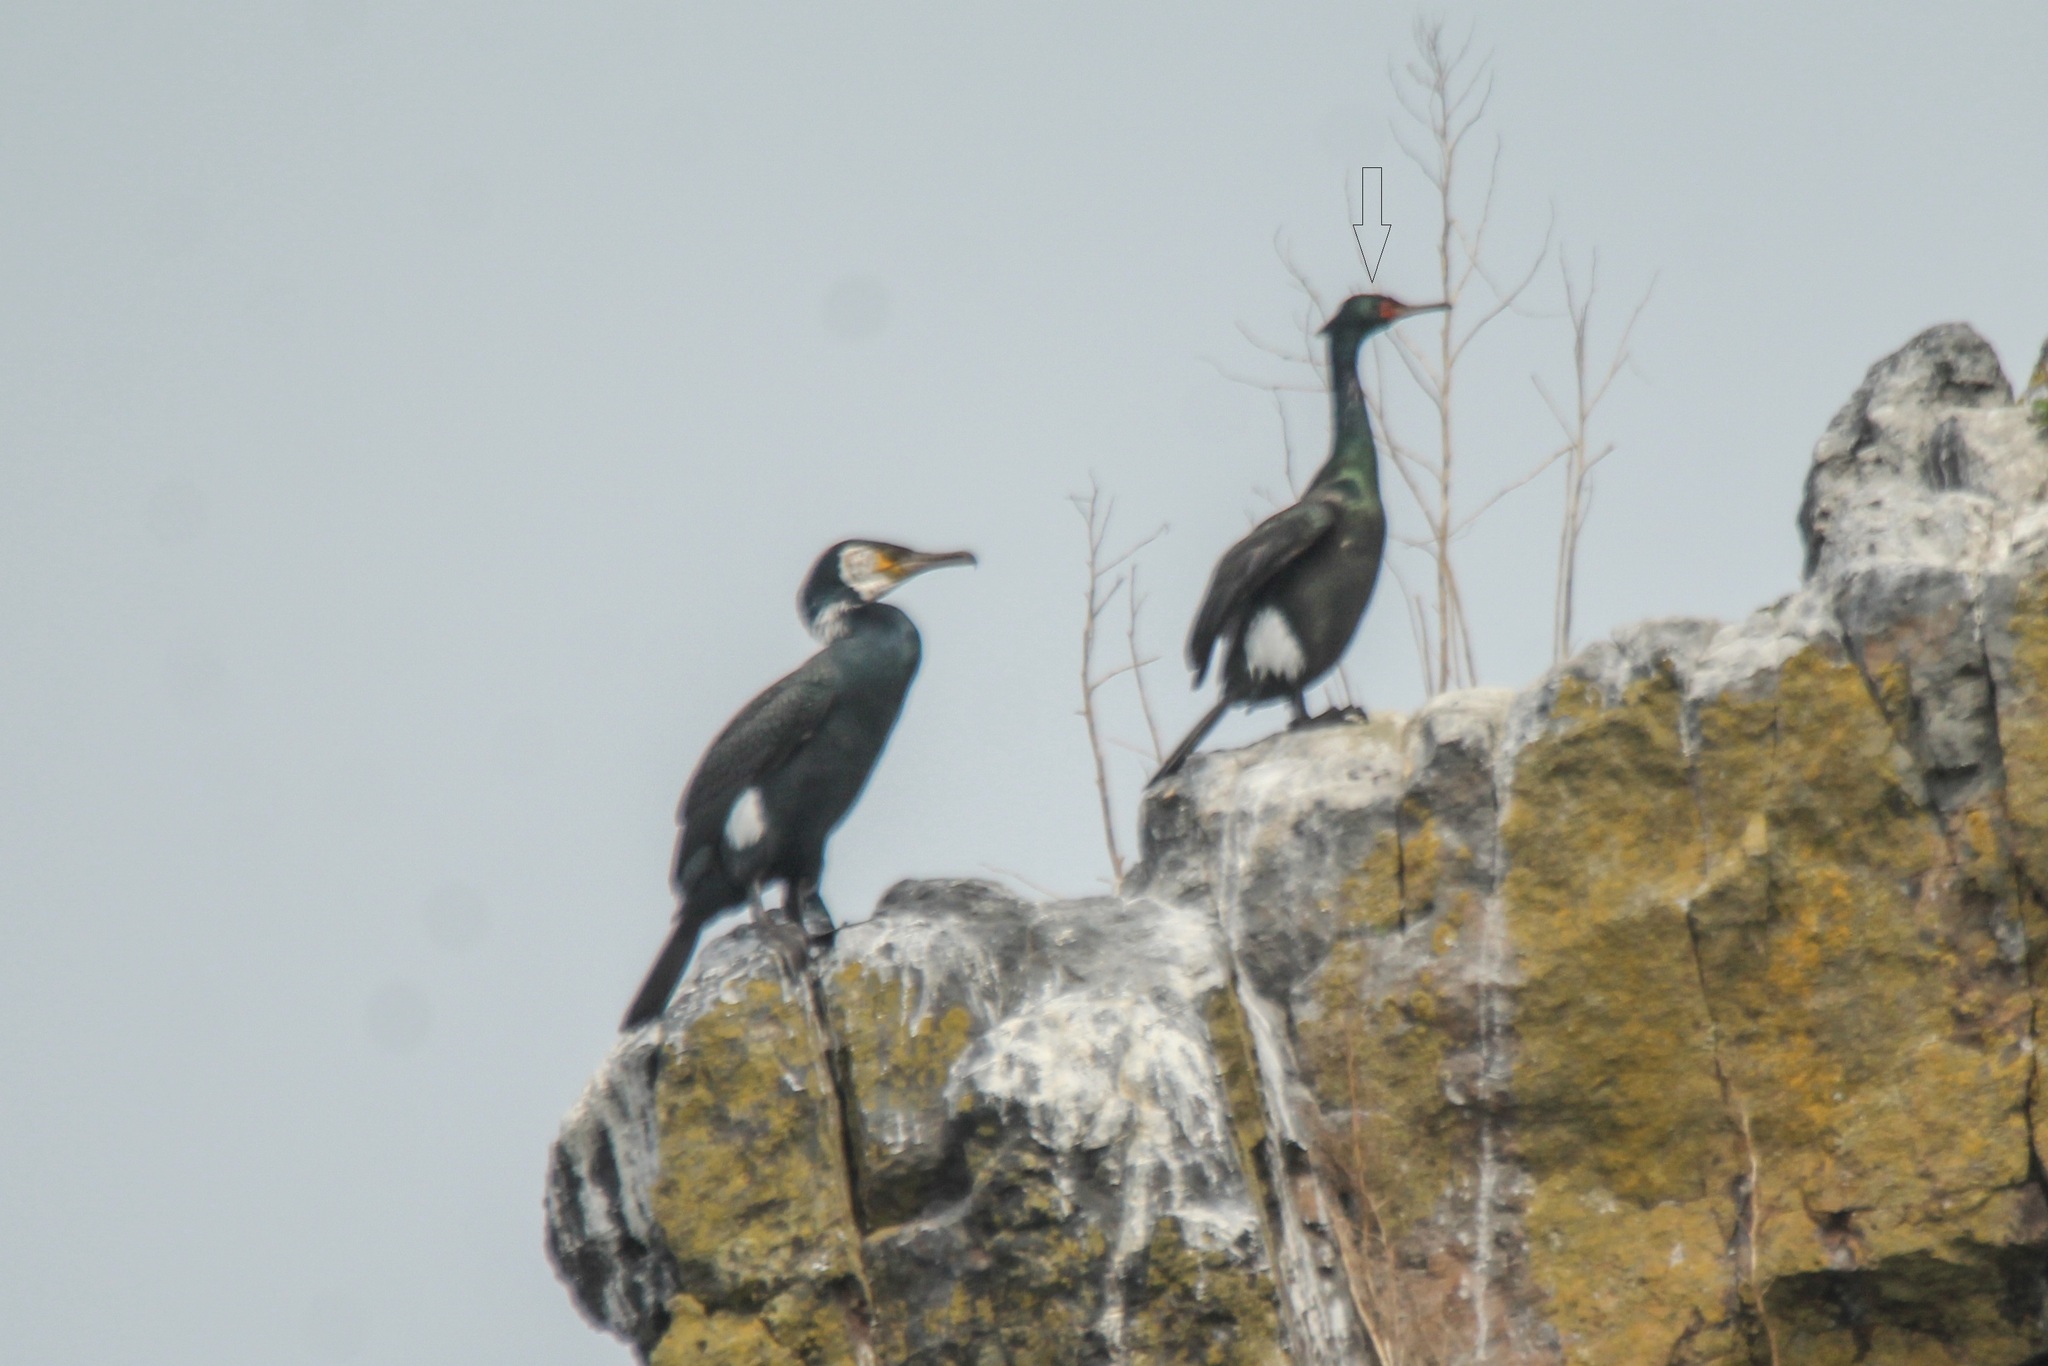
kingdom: Animalia
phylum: Chordata
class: Aves
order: Suliformes
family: Phalacrocoracidae
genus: Phalacrocorax
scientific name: Phalacrocorax pelagicus
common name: Pelagic cormorant
